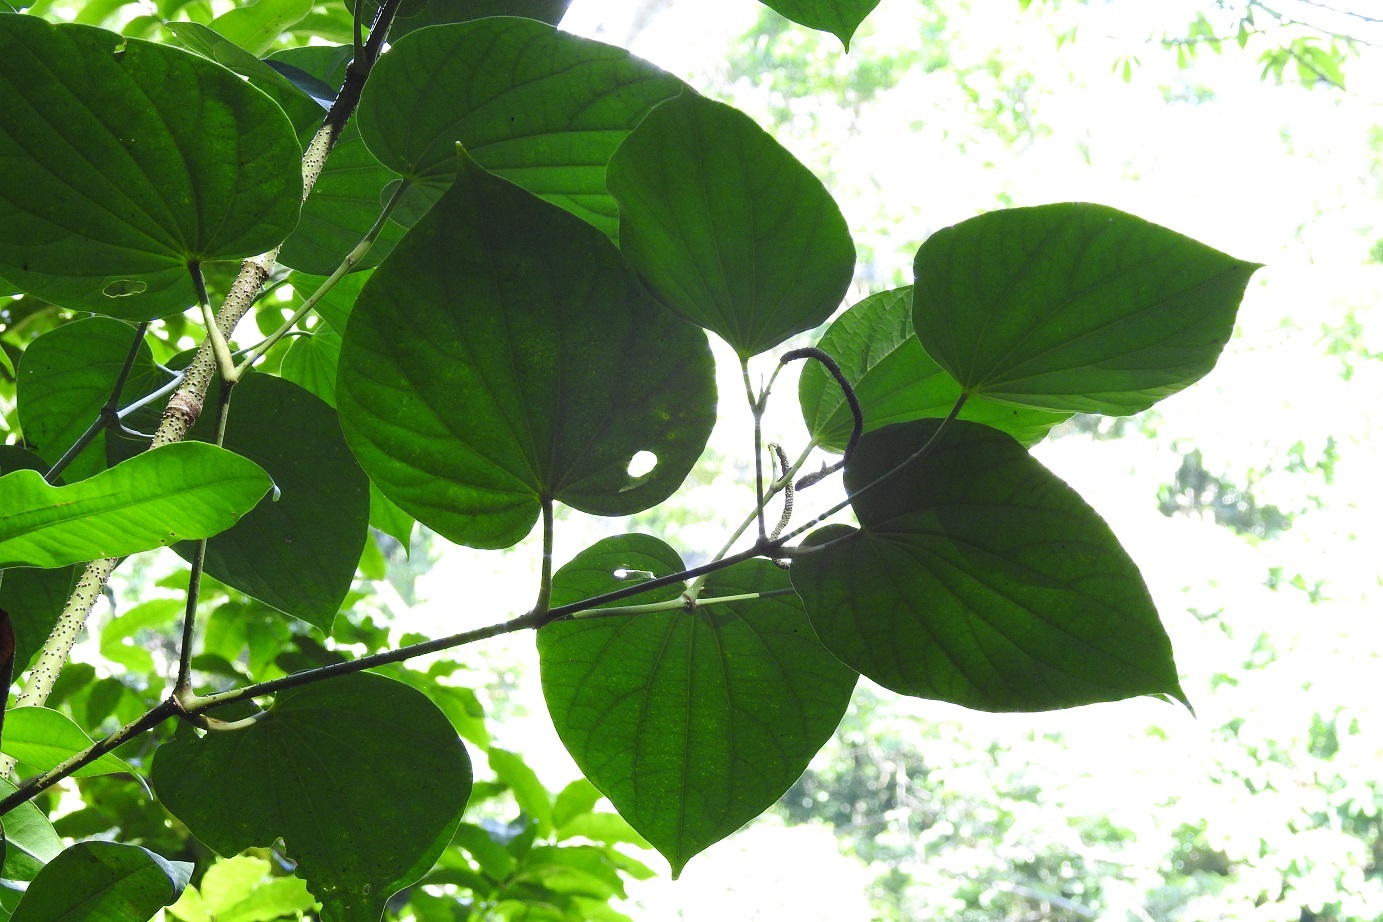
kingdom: Plantae
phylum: Tracheophyta
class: Magnoliopsida
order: Piperales
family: Piperaceae
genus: Piper
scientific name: Piper marginatum
